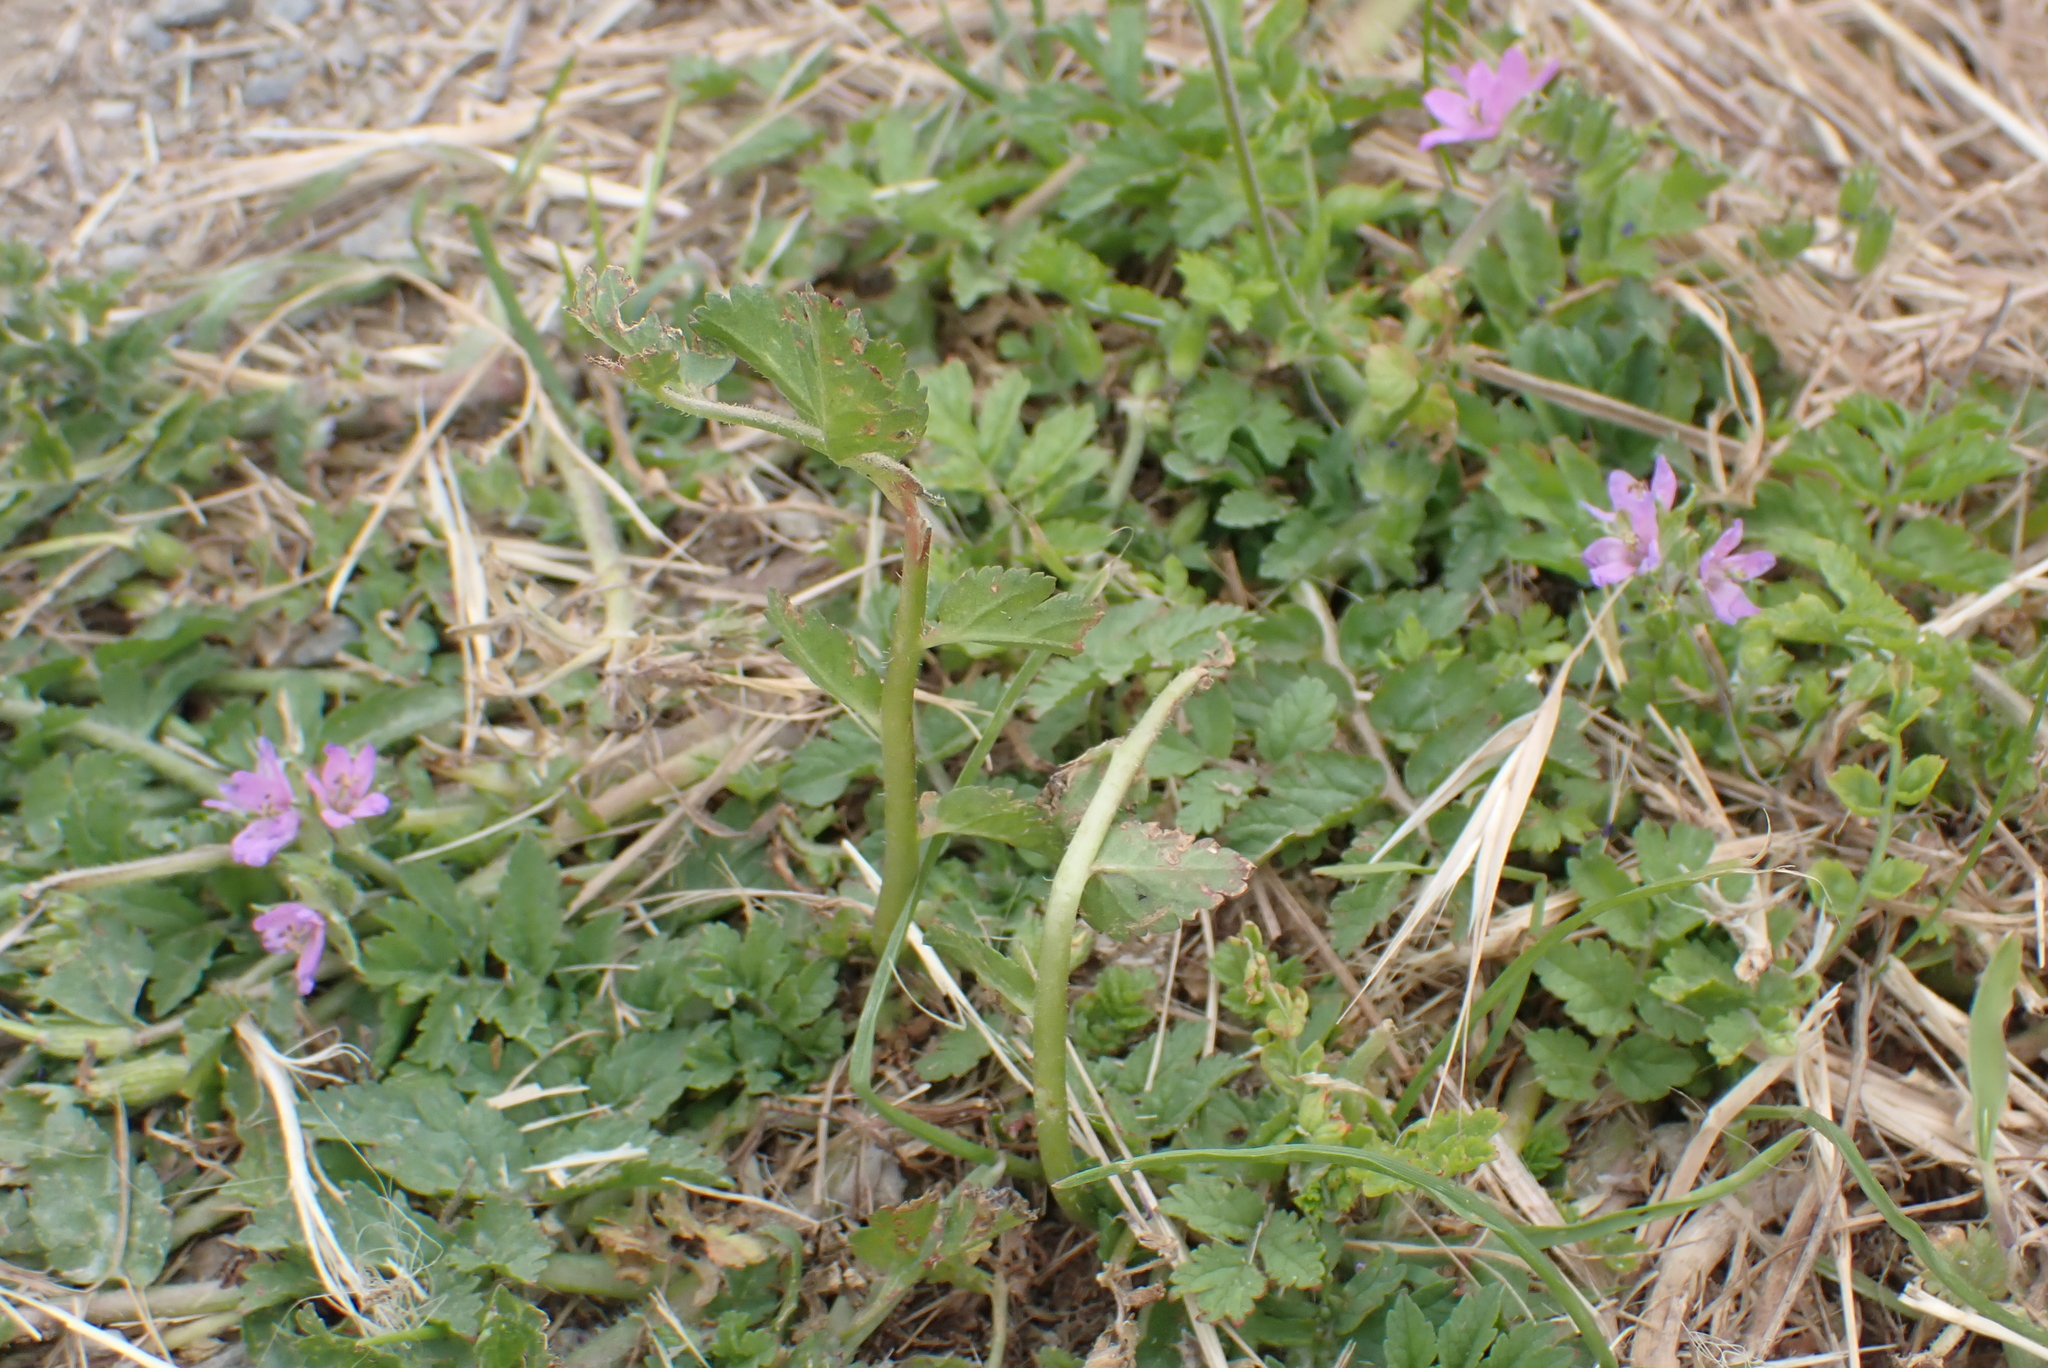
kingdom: Plantae
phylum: Tracheophyta
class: Magnoliopsida
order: Geraniales
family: Geraniaceae
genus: Erodium
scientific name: Erodium moschatum
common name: Musk stork's-bill
